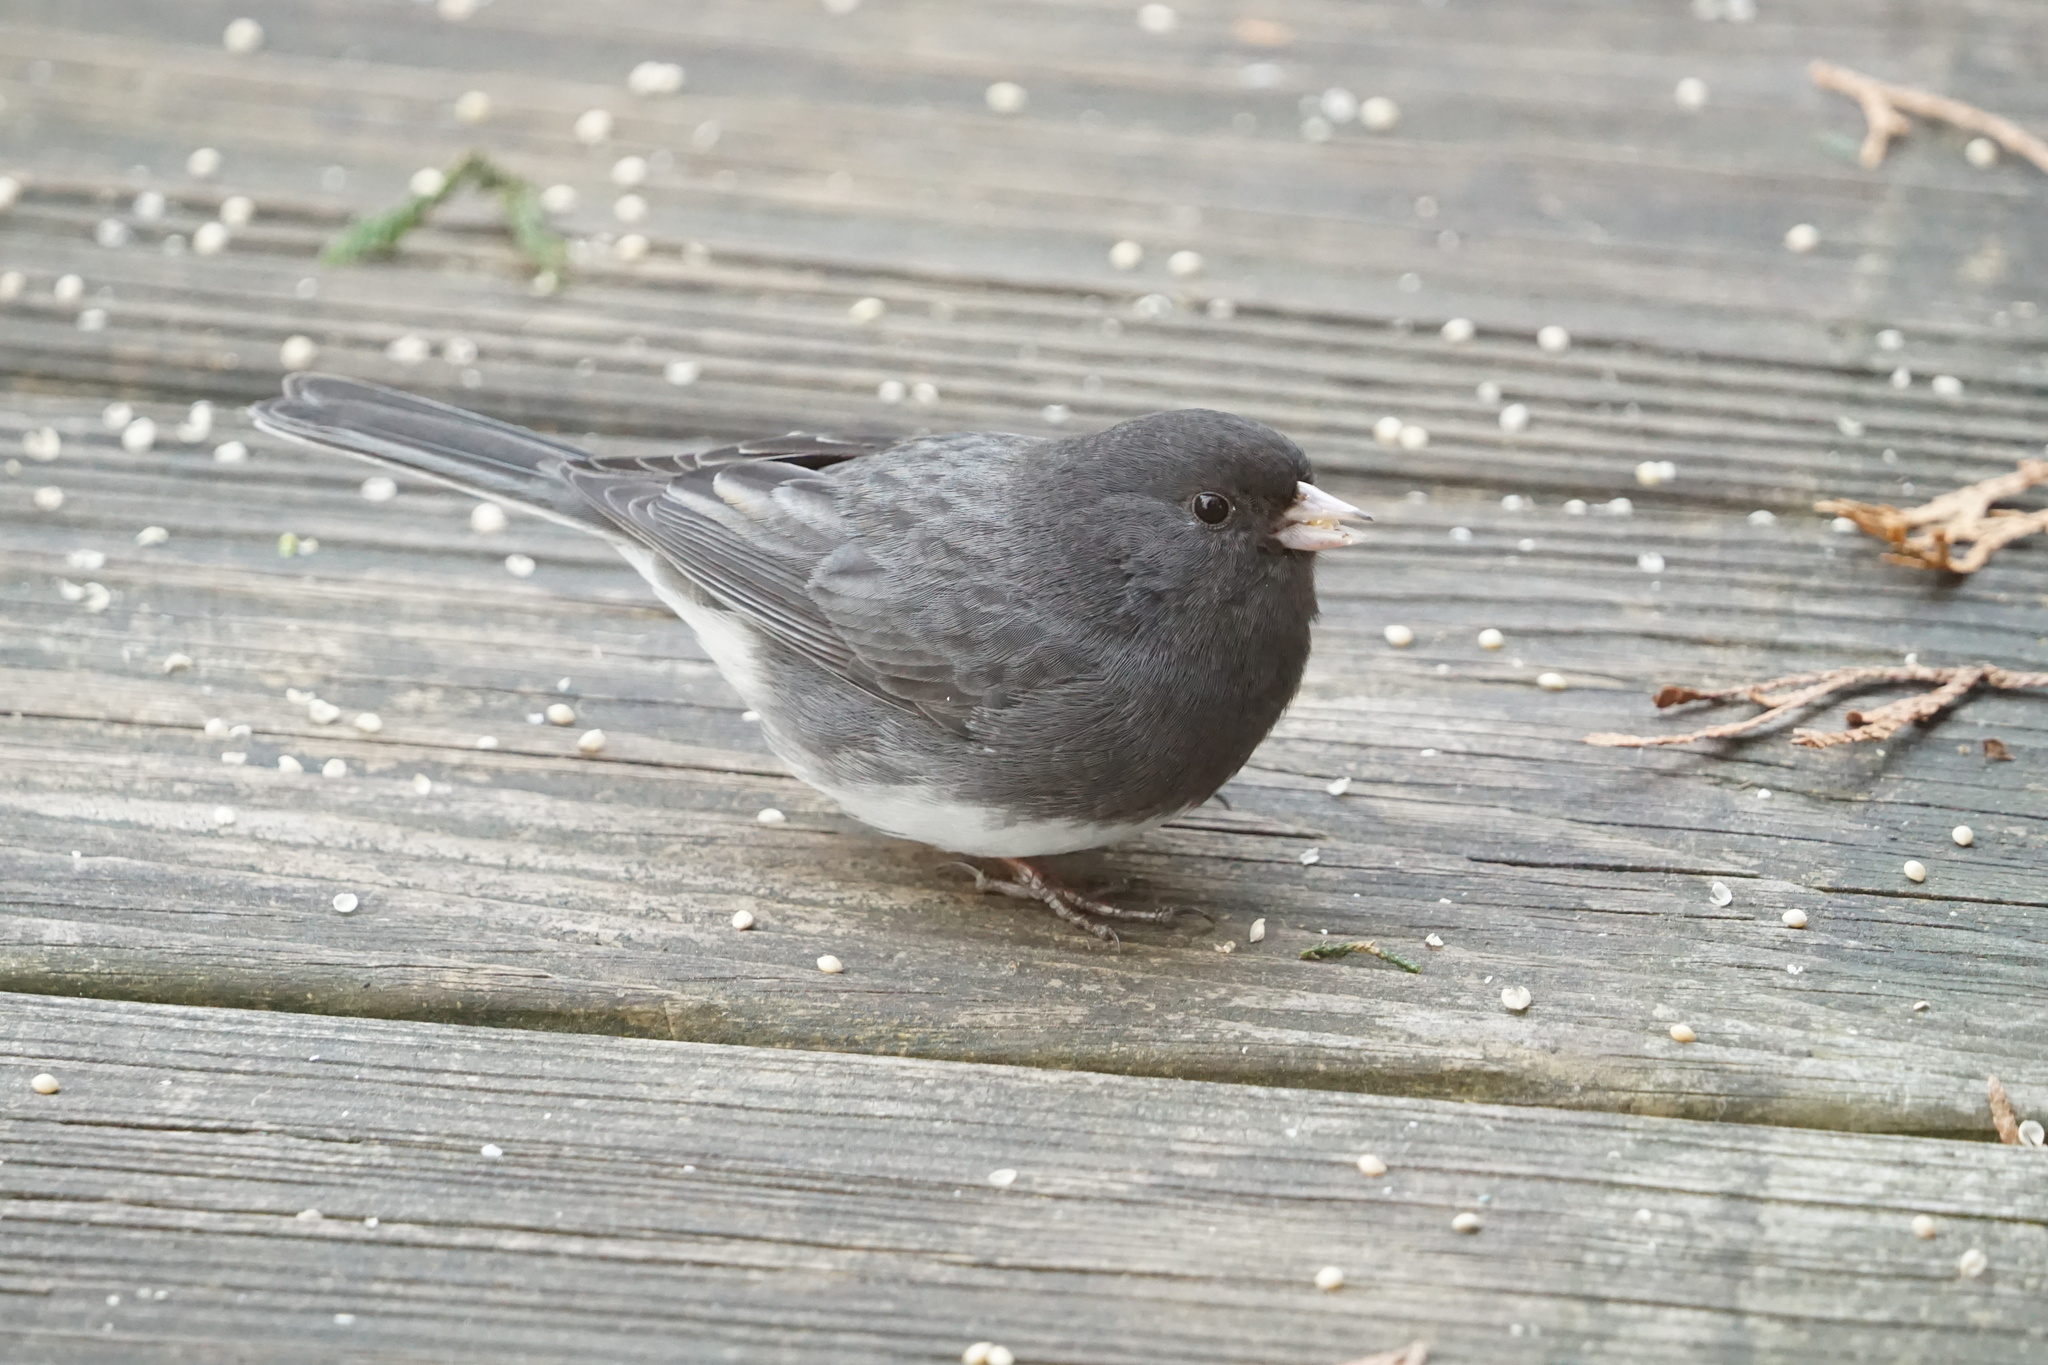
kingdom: Animalia
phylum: Chordata
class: Aves
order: Passeriformes
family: Passerellidae
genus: Junco
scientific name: Junco hyemalis
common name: Dark-eyed junco
